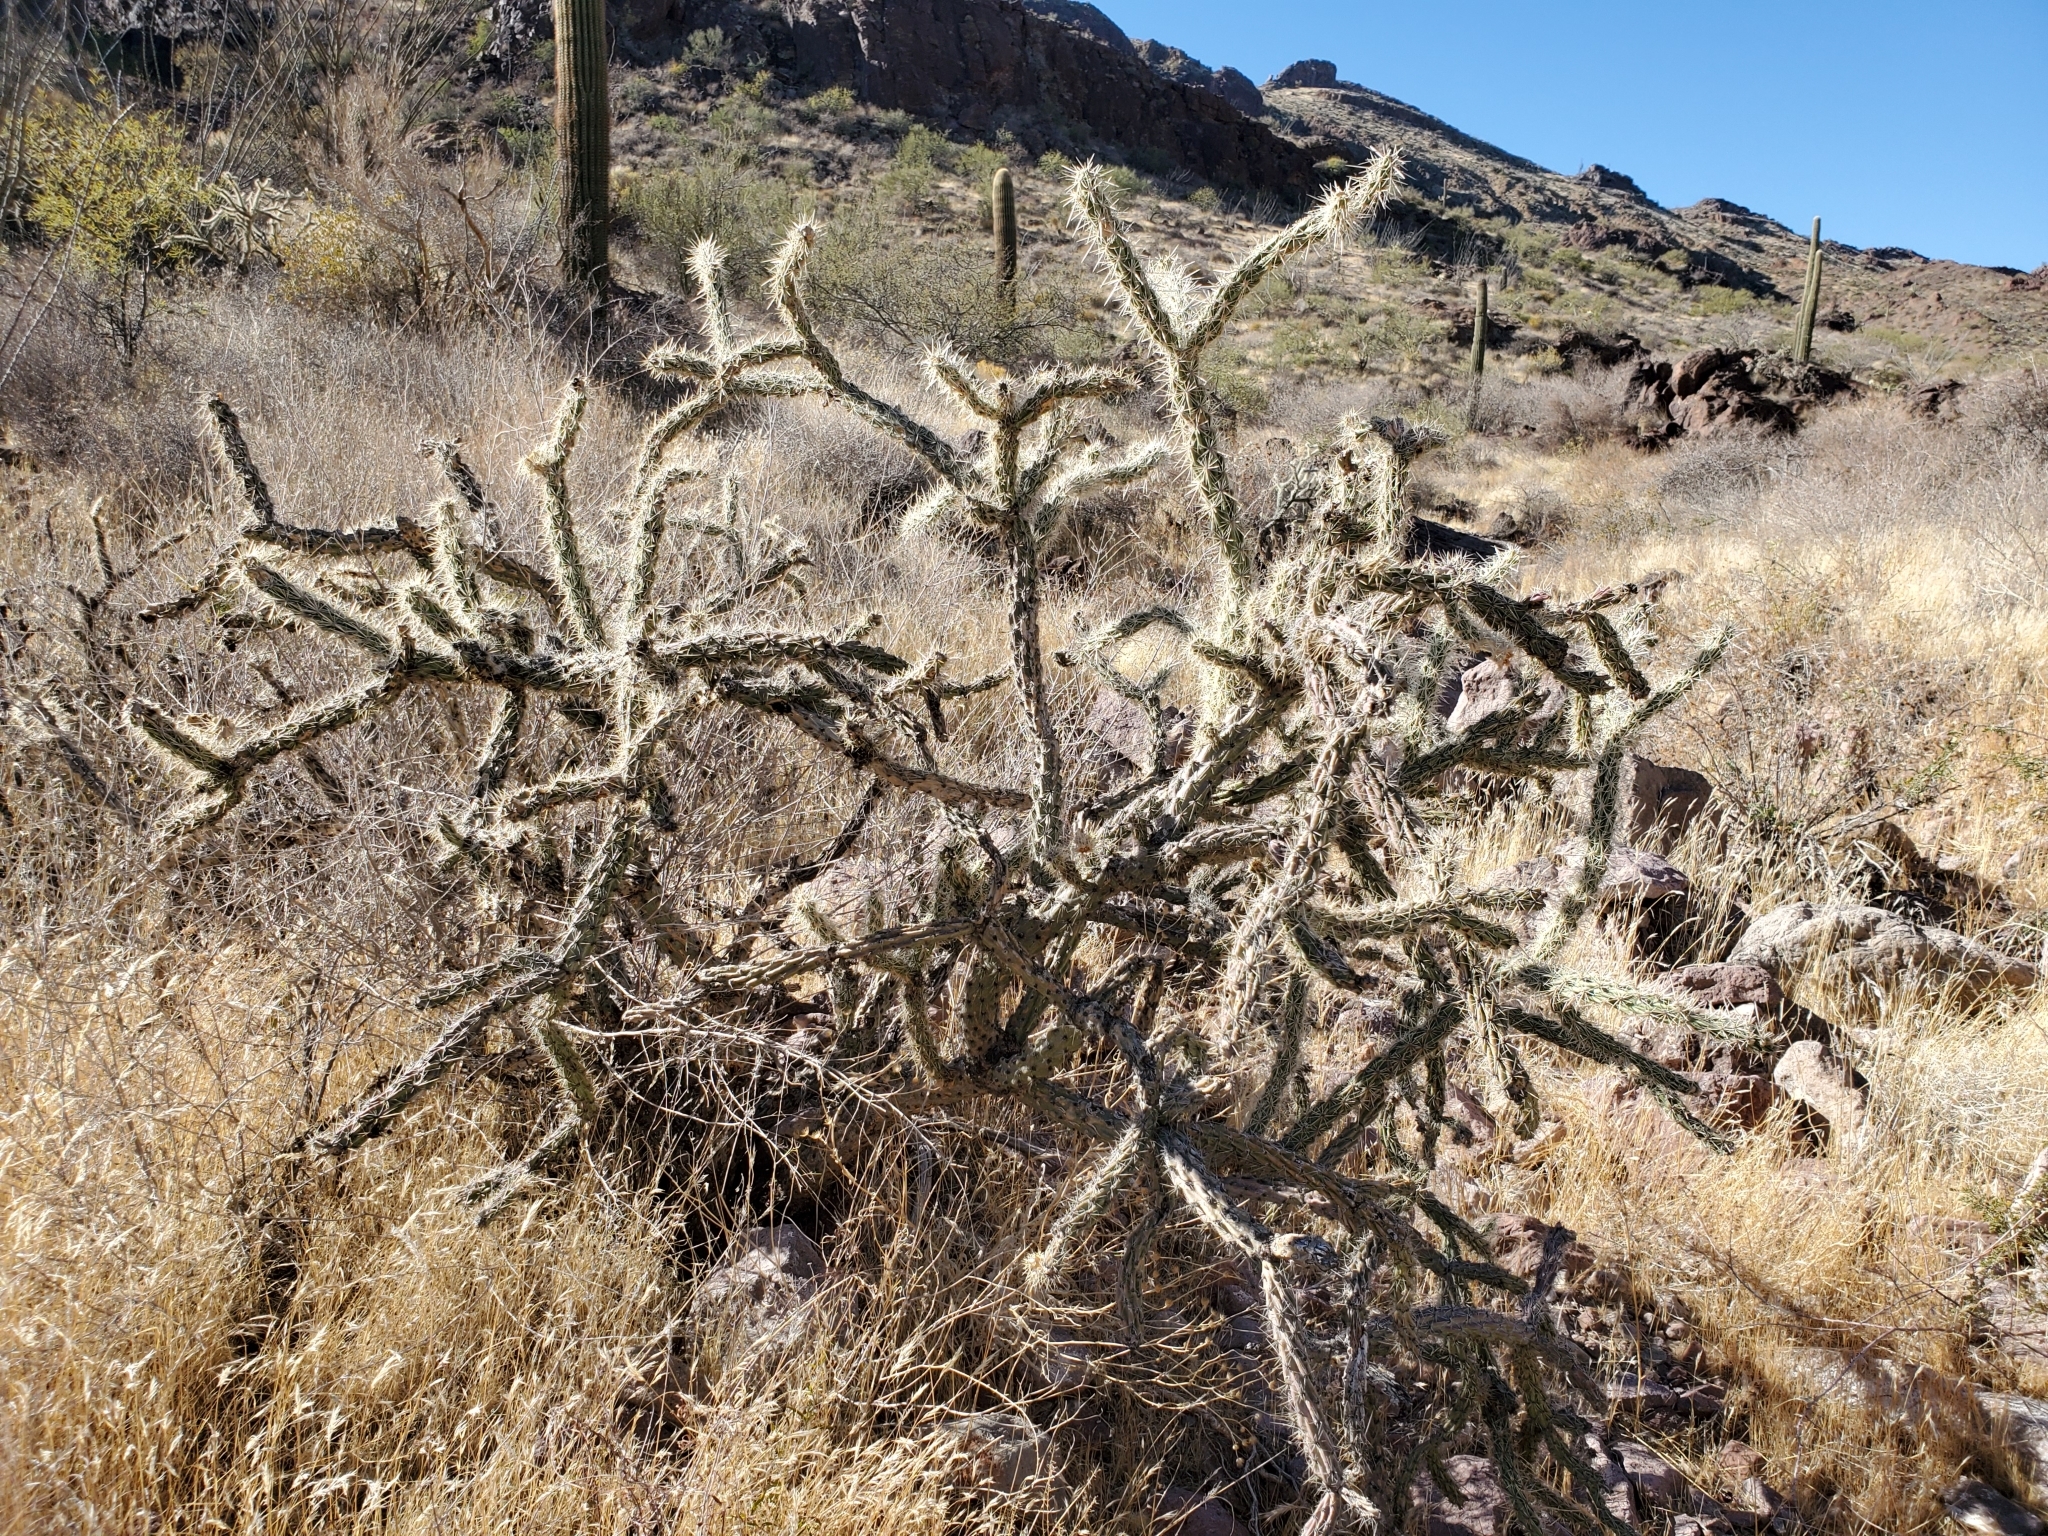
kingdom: Plantae
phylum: Tracheophyta
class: Magnoliopsida
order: Caryophyllales
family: Cactaceae
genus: Cylindropuntia
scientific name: Cylindropuntia acanthocarpa
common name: Buckhorn cholla
